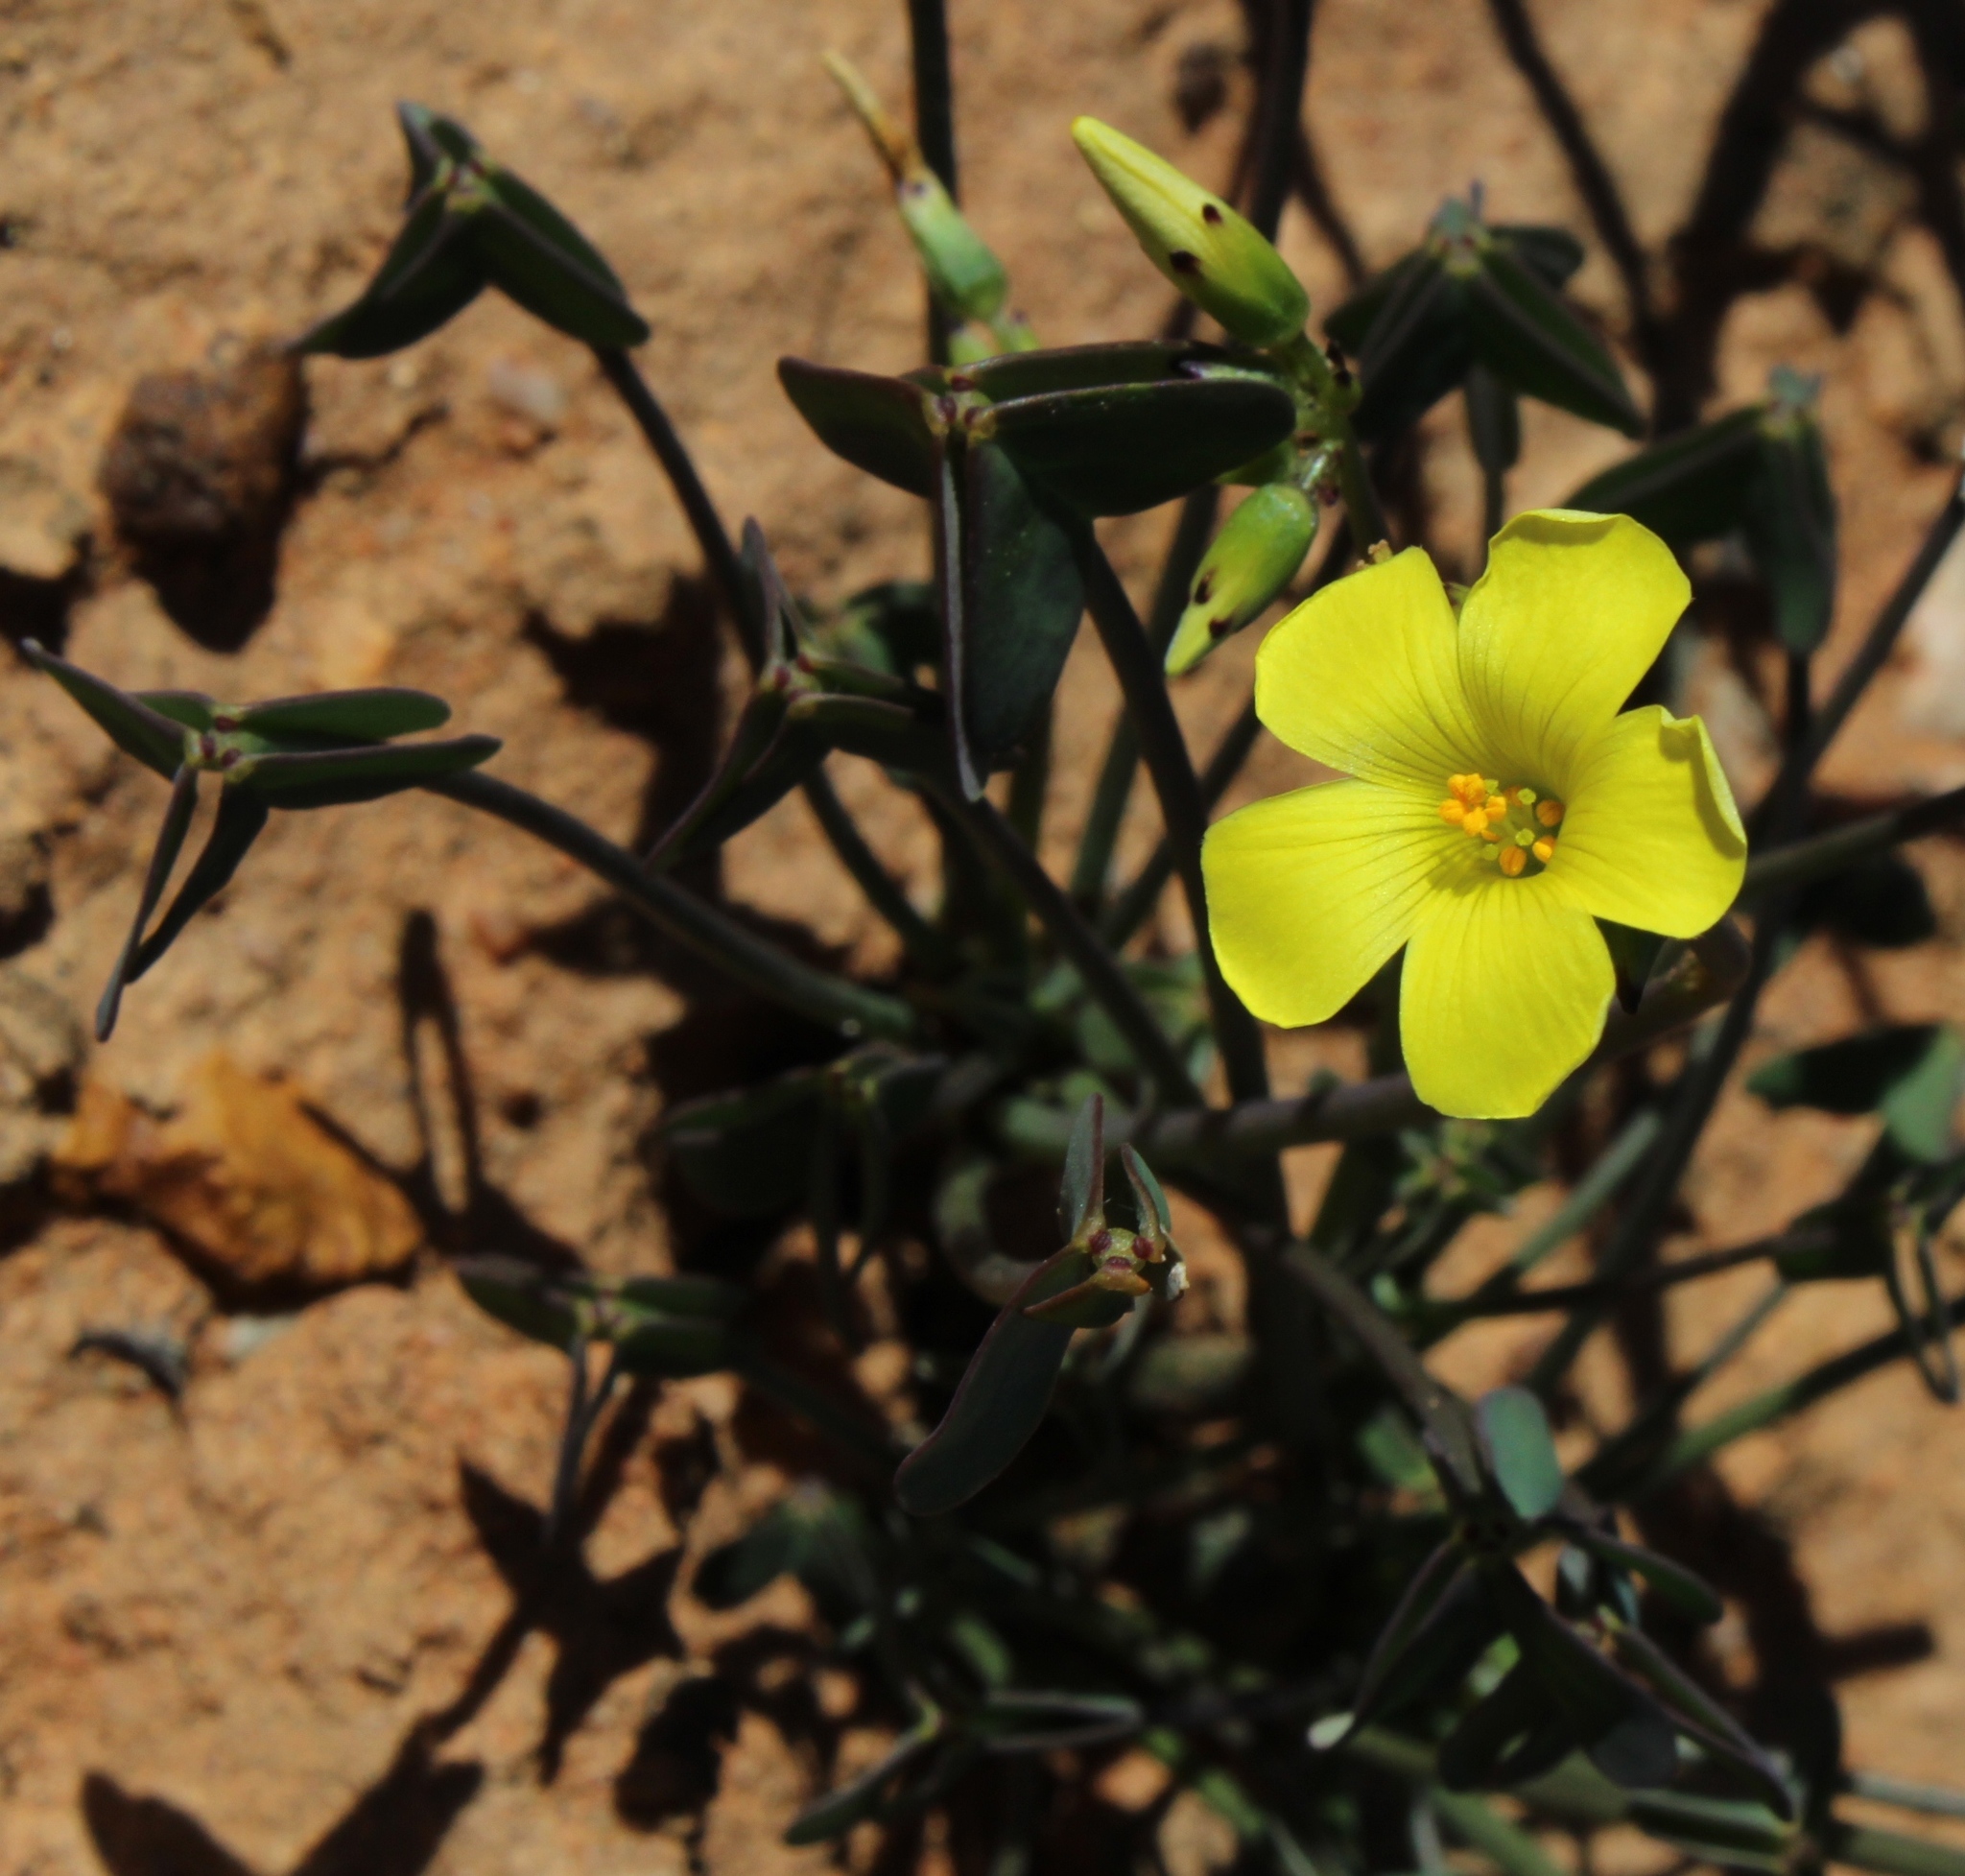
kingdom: Plantae
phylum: Tracheophyta
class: Magnoliopsida
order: Oxalidales
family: Oxalidaceae
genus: Oxalis
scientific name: Oxalis pes-caprae
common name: Bermuda-buttercup
